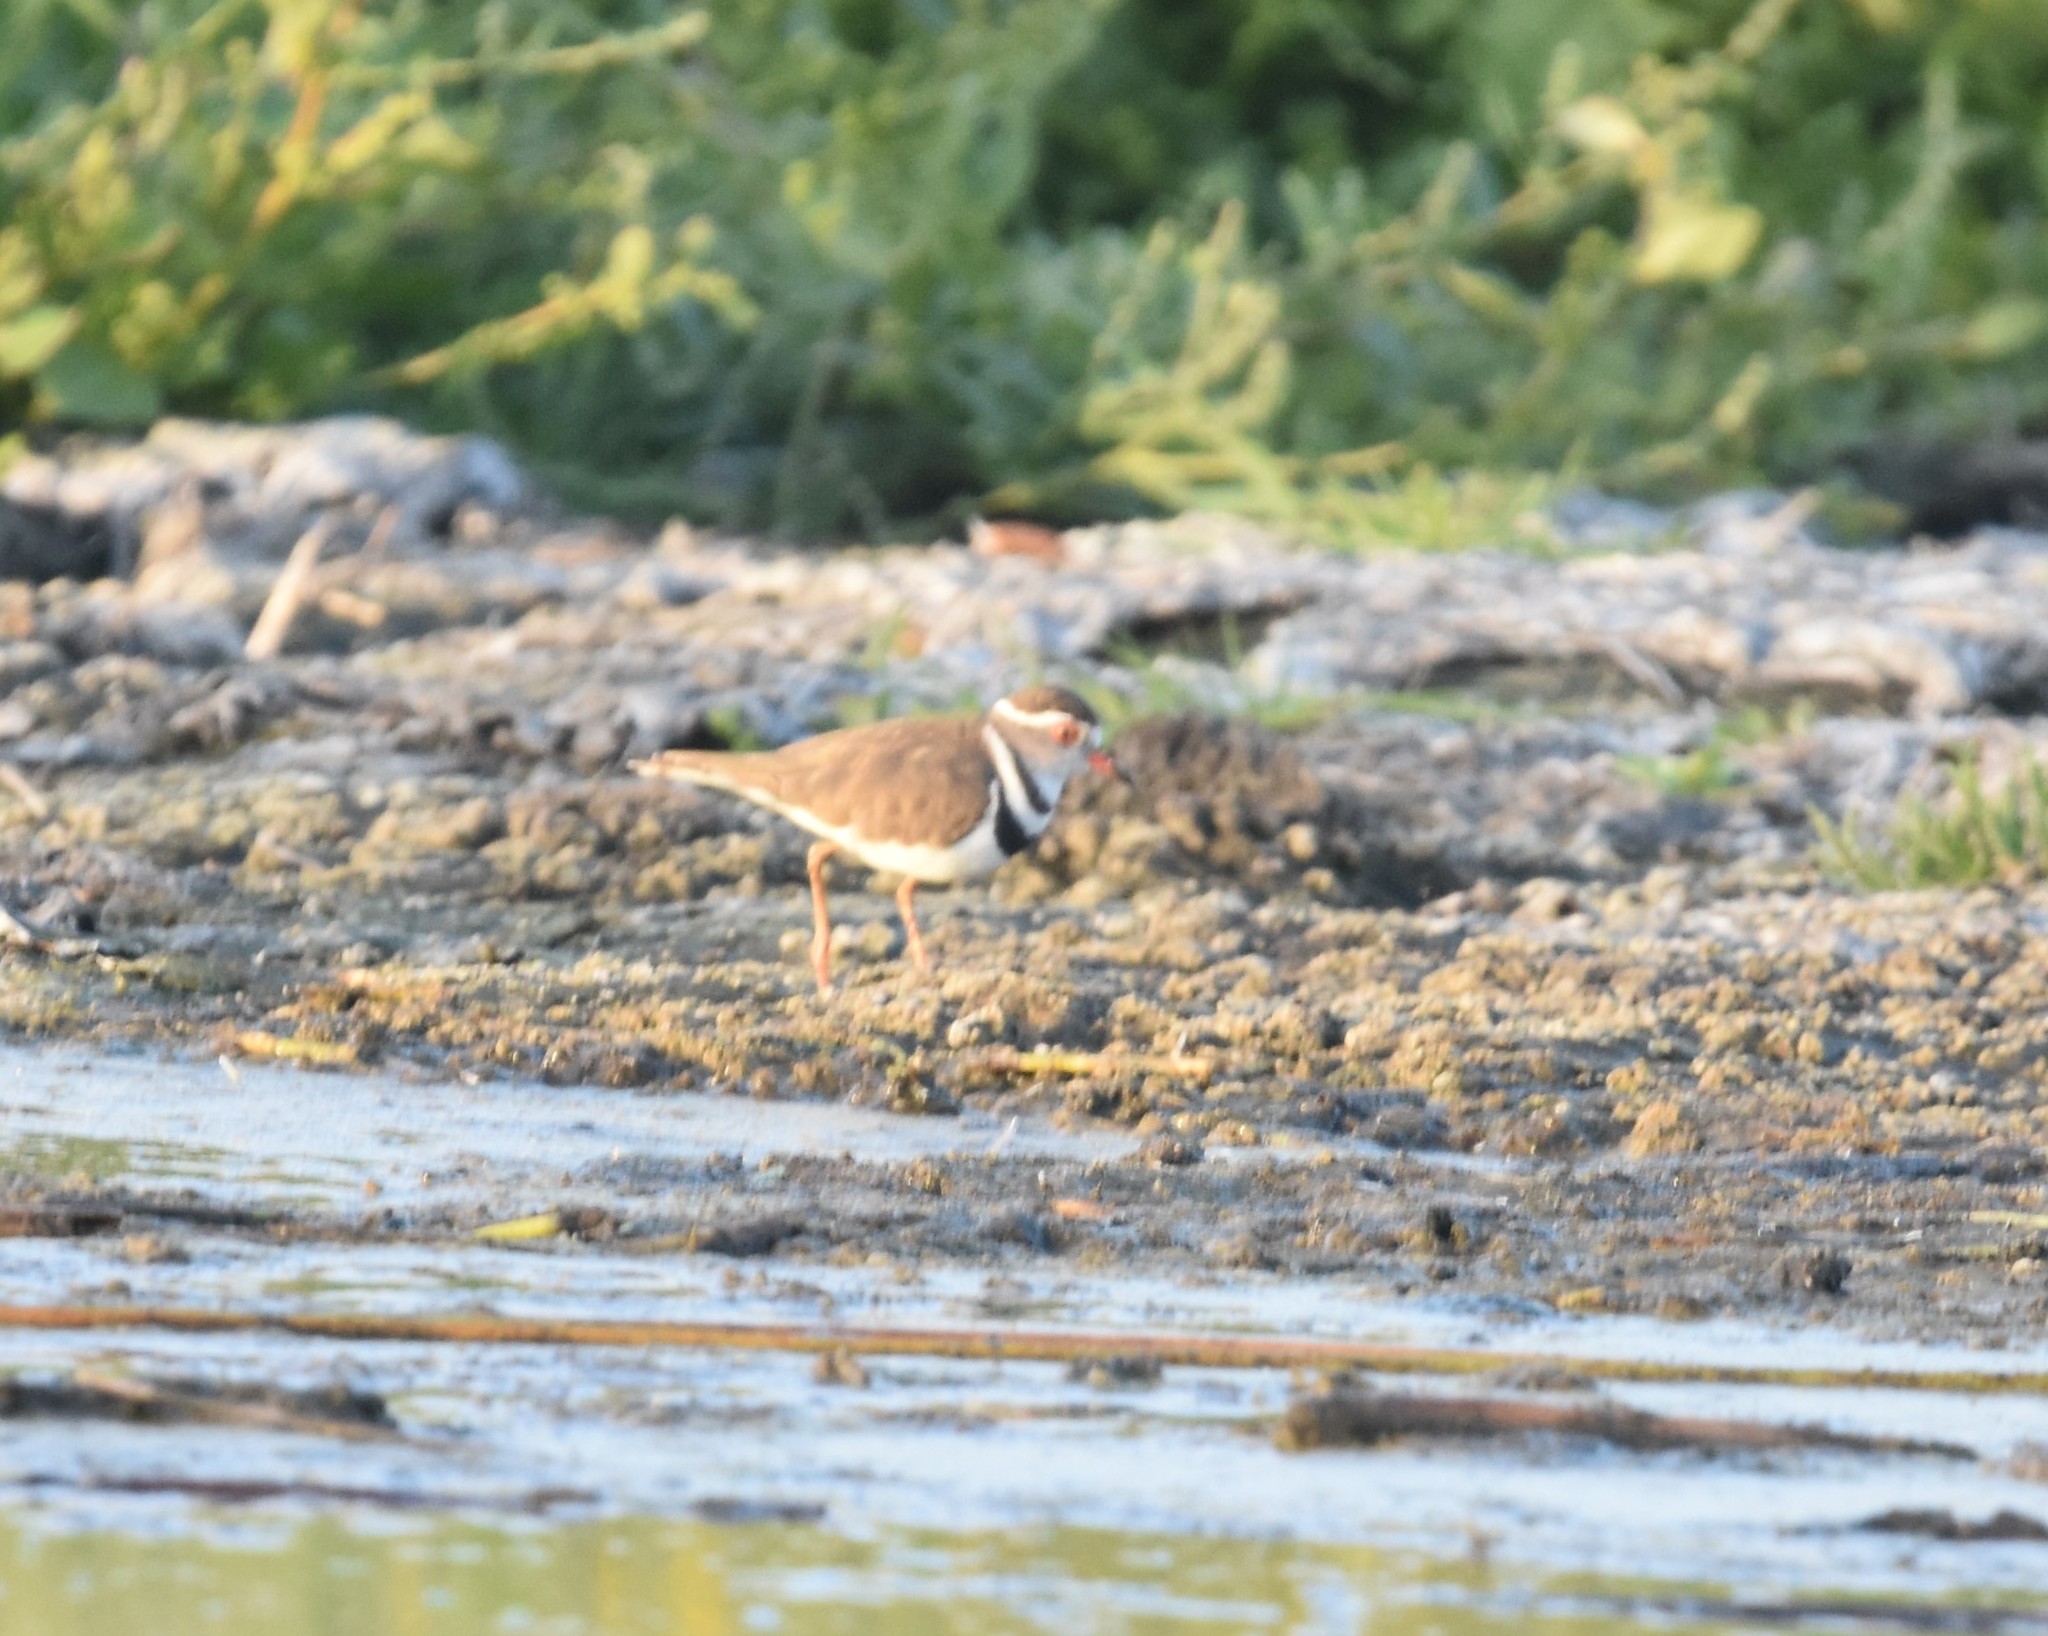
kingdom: Animalia
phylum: Chordata
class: Aves
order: Charadriiformes
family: Charadriidae
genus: Charadrius
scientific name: Charadrius tricollaris
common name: Three-banded plover
